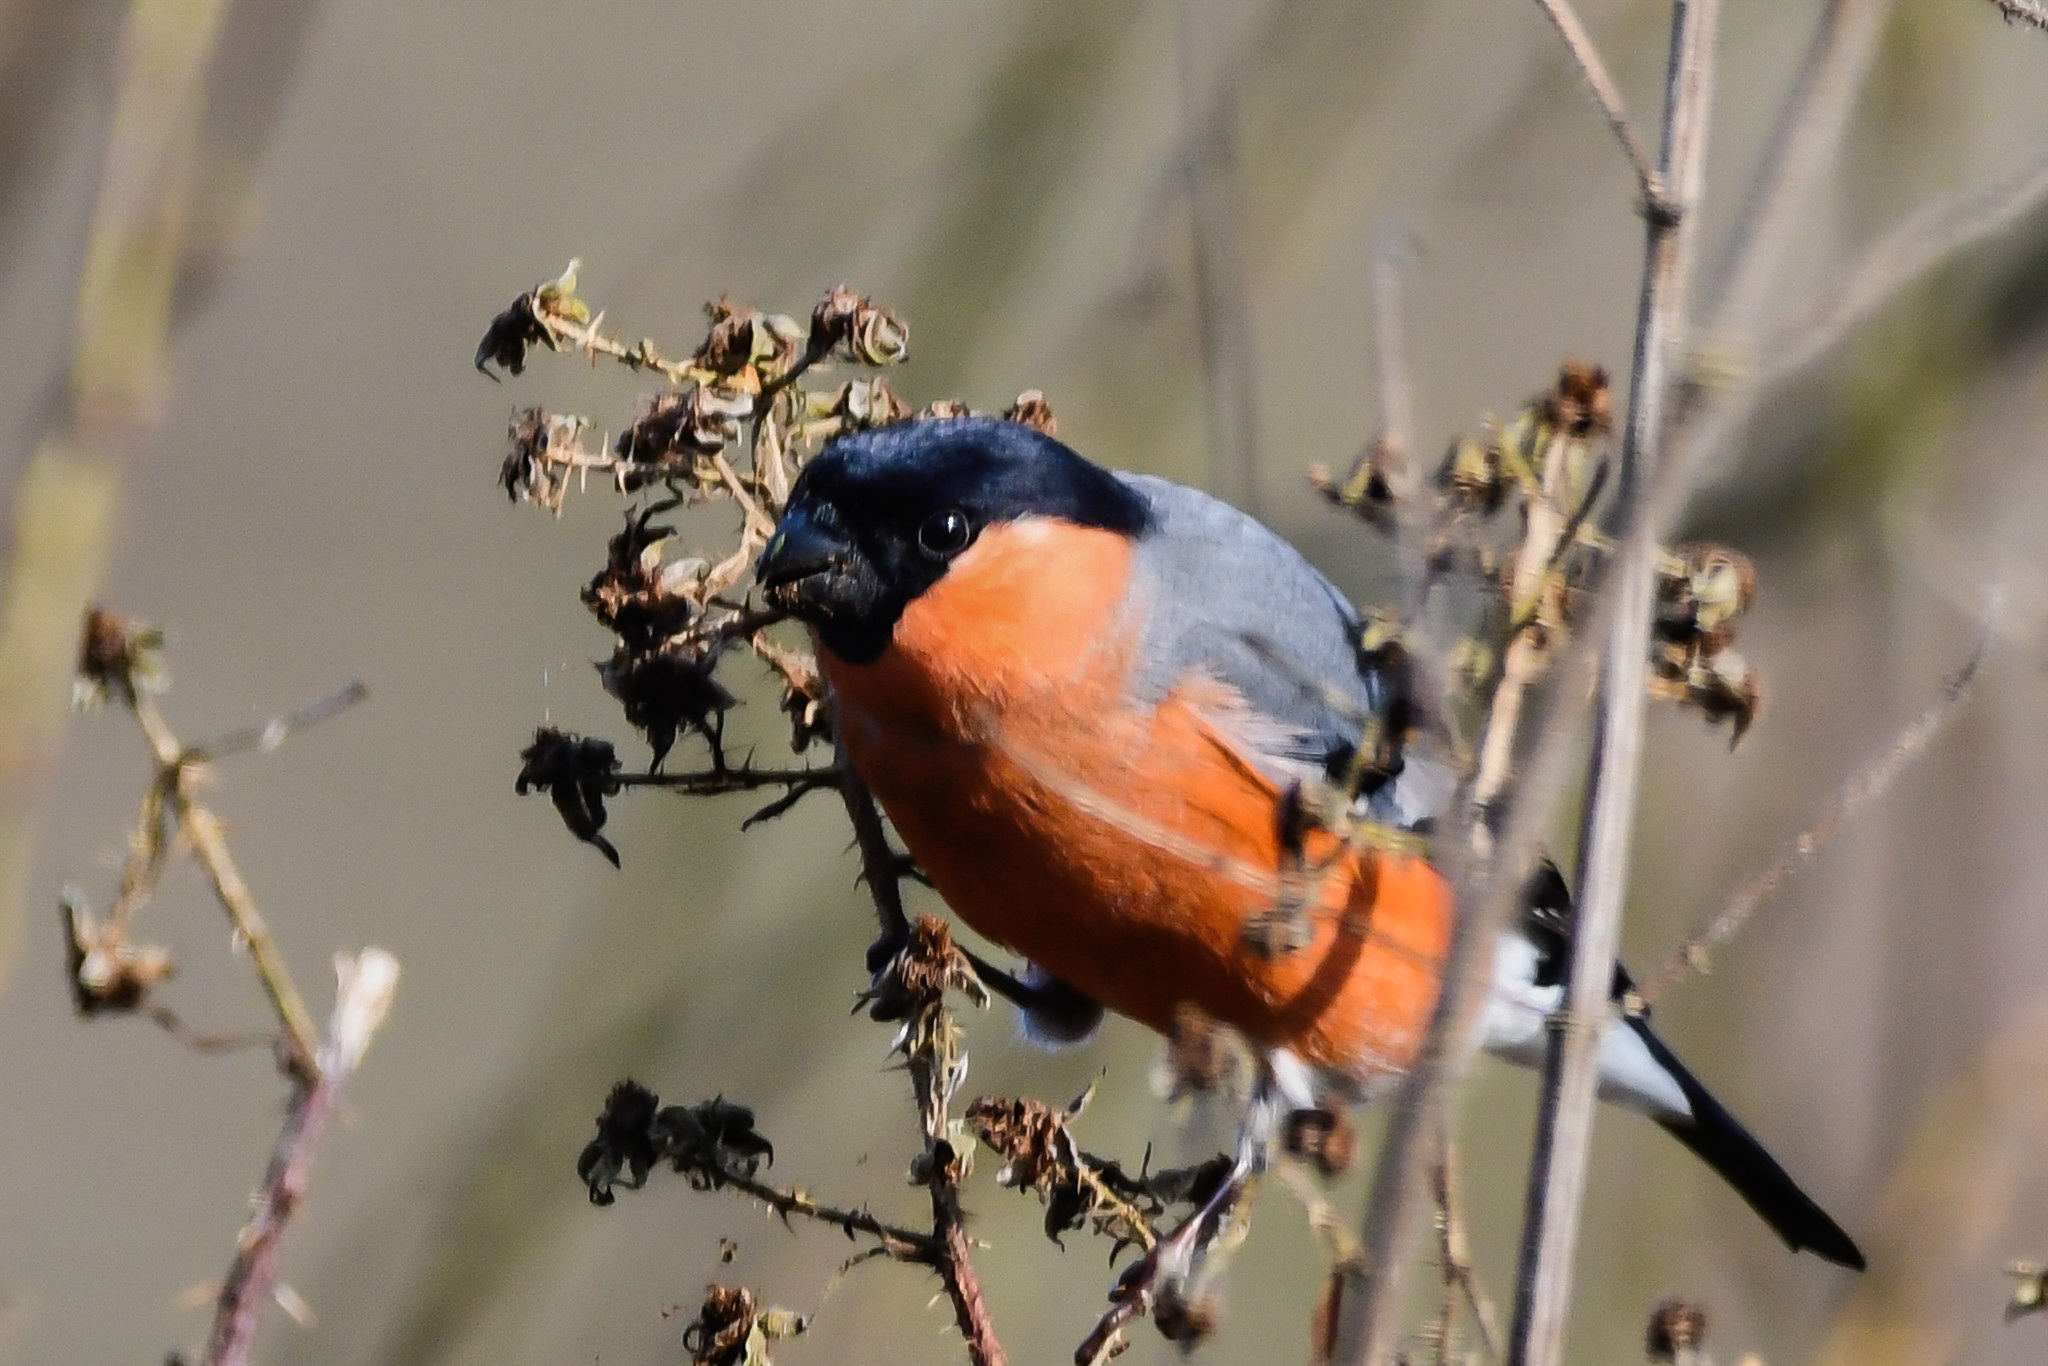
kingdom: Animalia
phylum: Chordata
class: Aves
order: Passeriformes
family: Fringillidae
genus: Pyrrhula
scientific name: Pyrrhula pyrrhula
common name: Eurasian bullfinch
